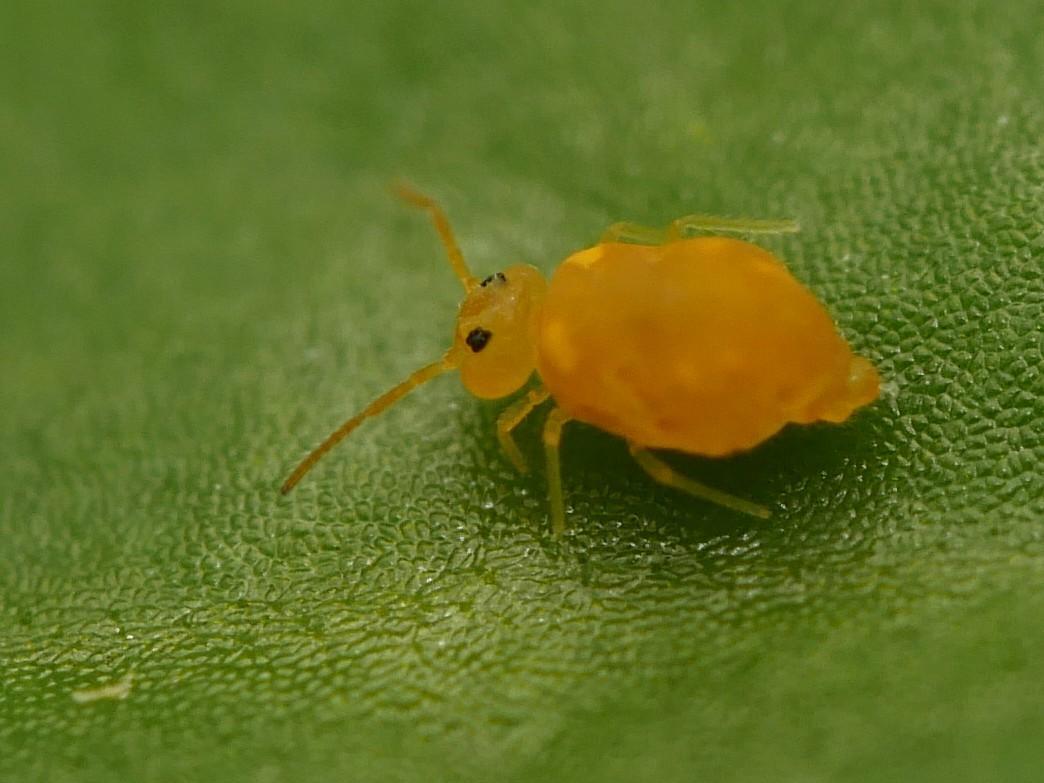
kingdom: Animalia
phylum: Arthropoda
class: Collembola
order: Symphypleona
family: Bourletiellidae
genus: Deuterosminthurus
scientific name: Deuterosminthurus pallipes
